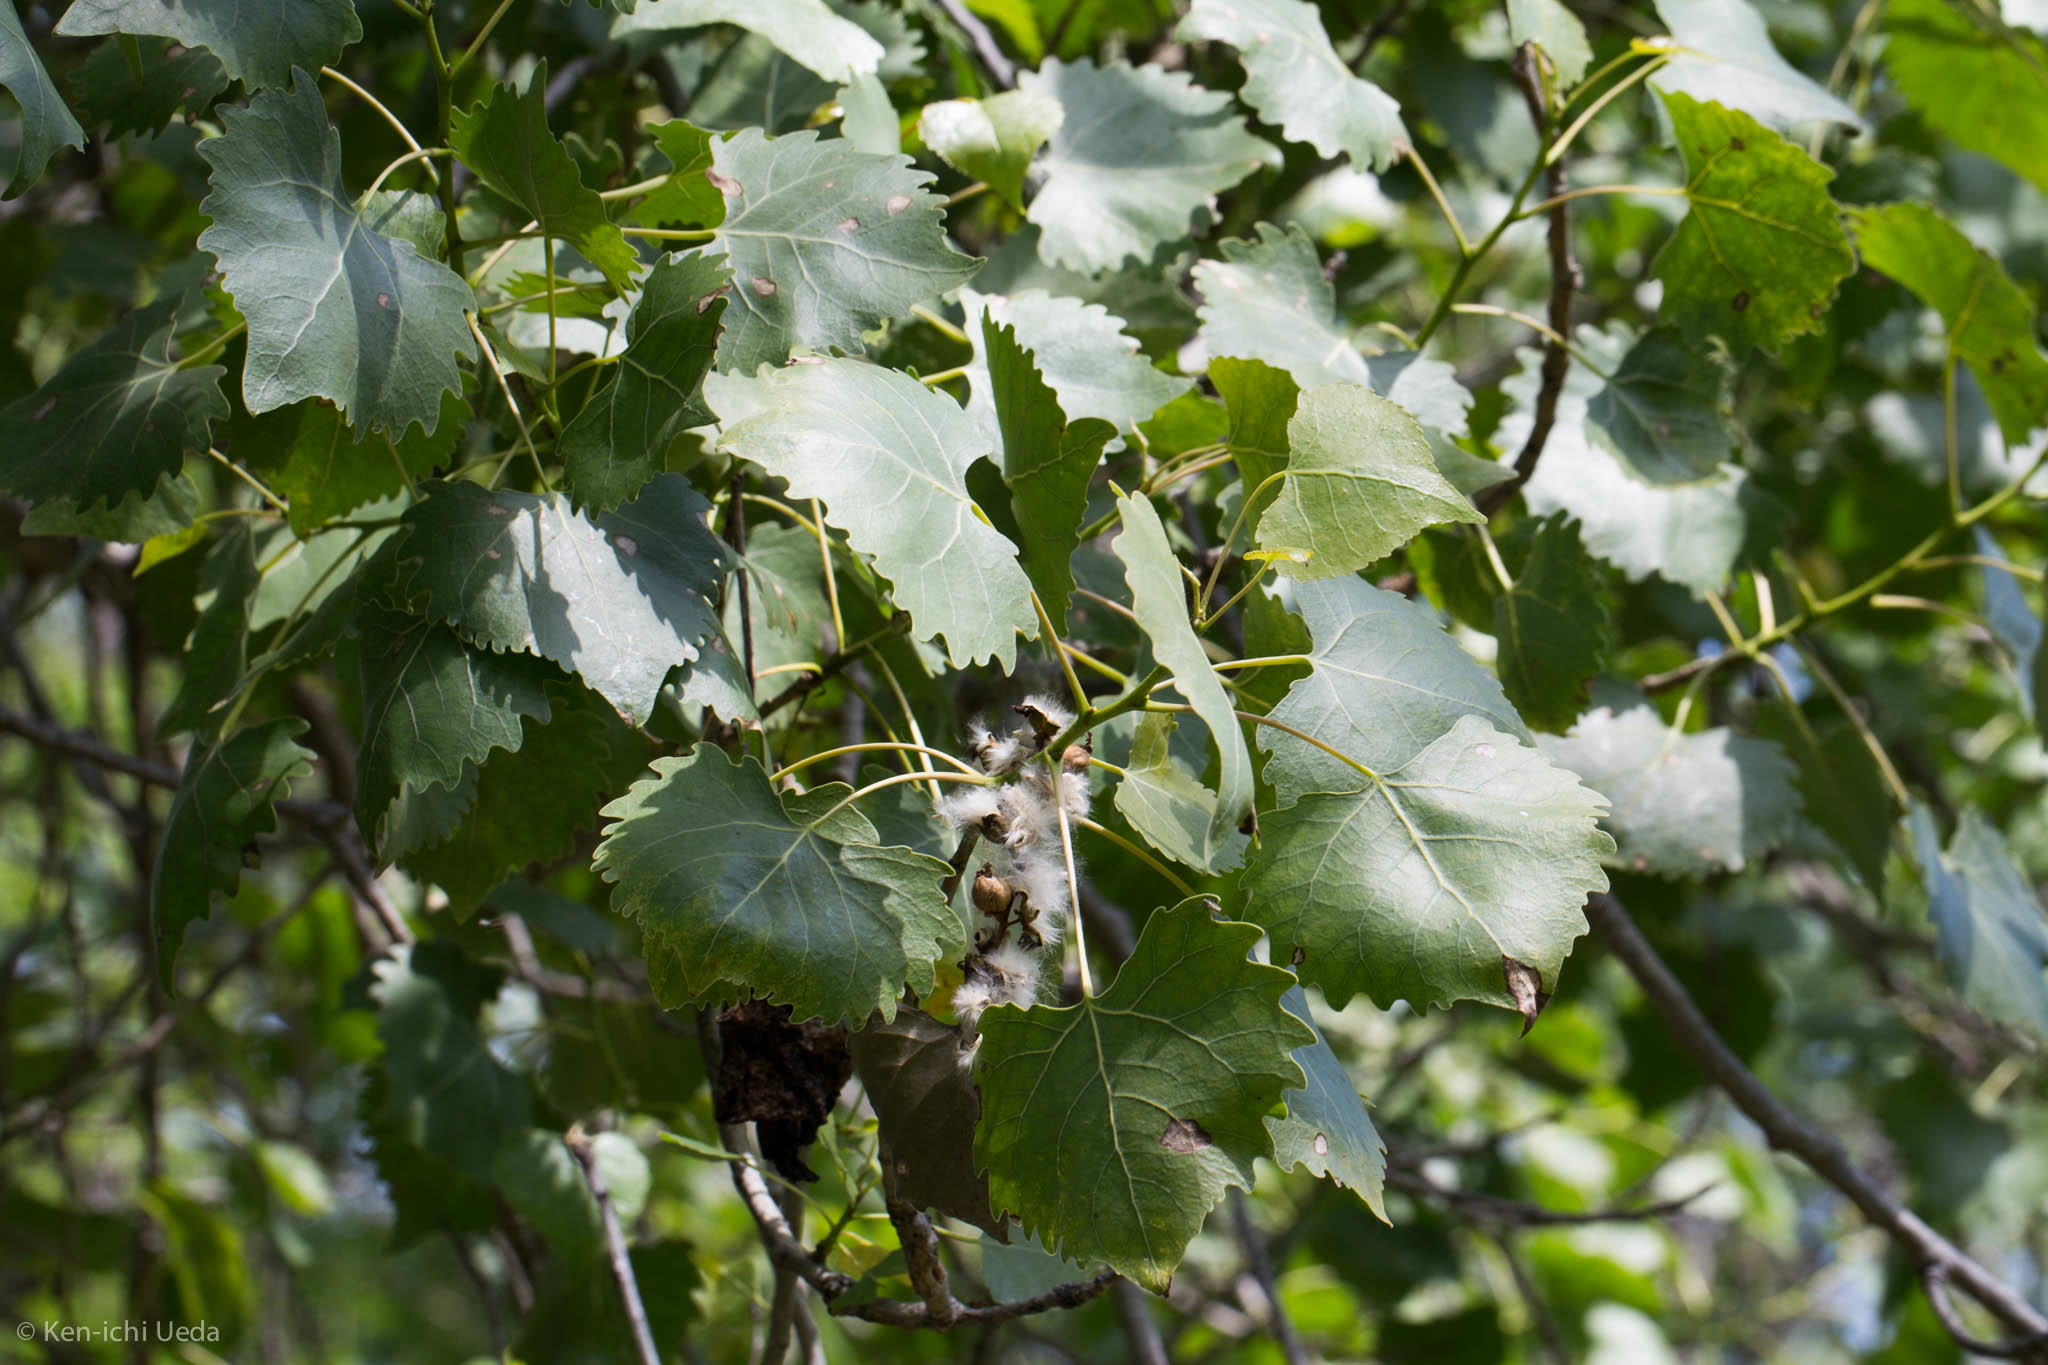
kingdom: Plantae
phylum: Tracheophyta
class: Magnoliopsida
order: Malpighiales
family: Salicaceae
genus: Populus
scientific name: Populus fremontii
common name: Fremont's cottonwood
